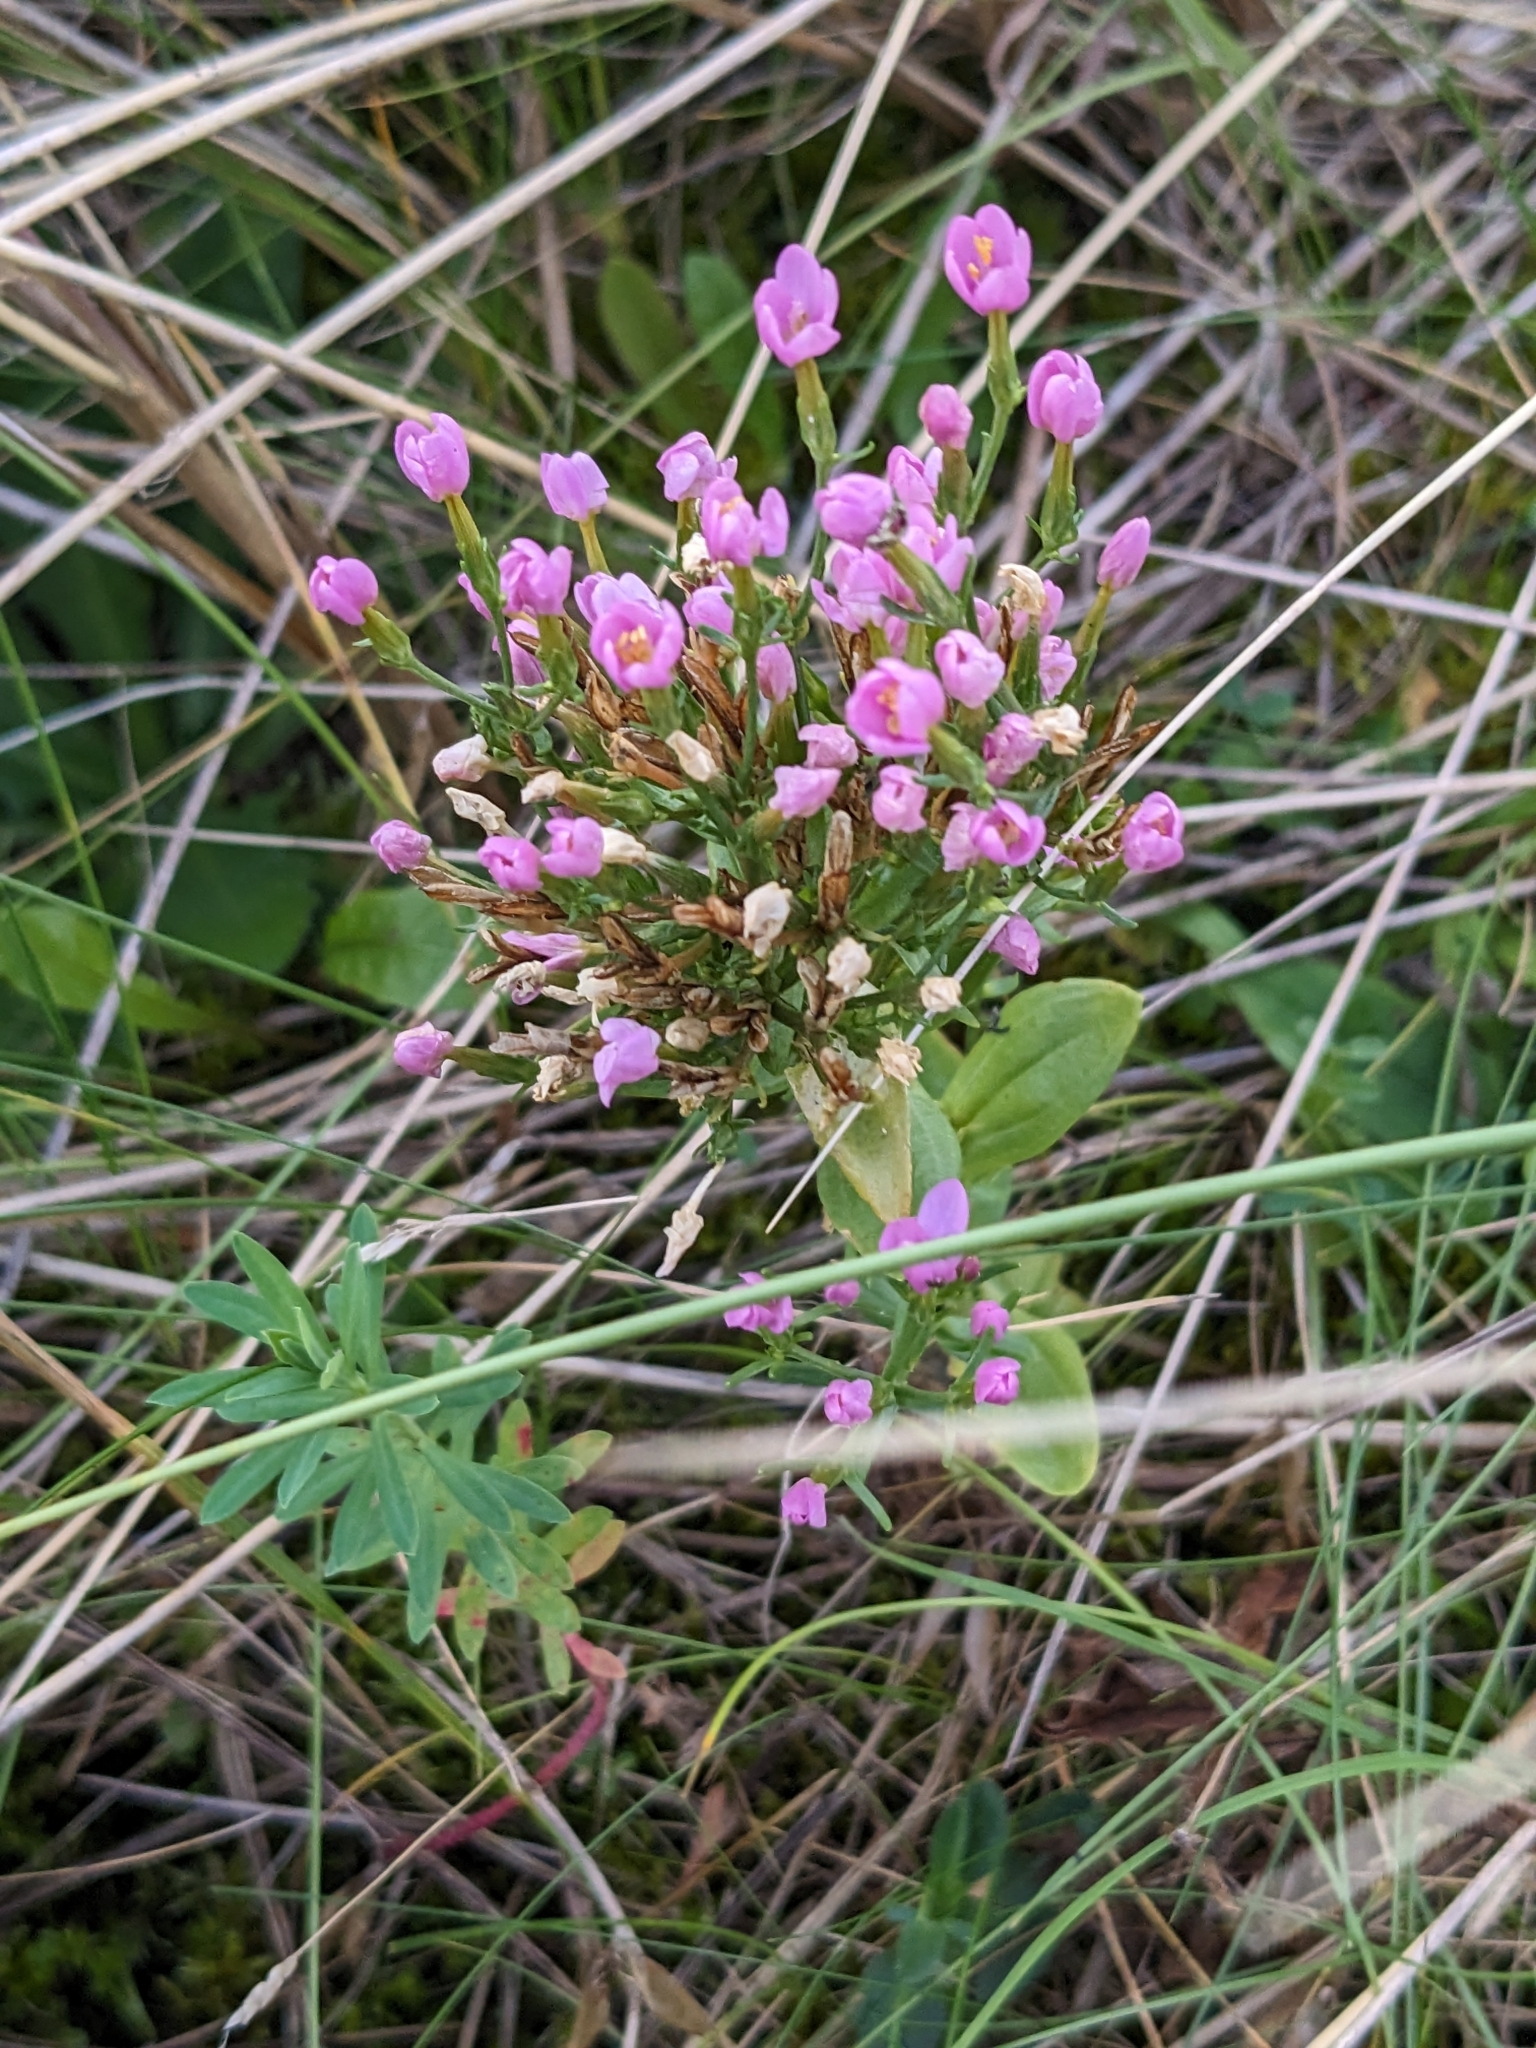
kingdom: Plantae
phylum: Tracheophyta
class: Magnoliopsida
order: Gentianales
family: Gentianaceae
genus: Centaurium
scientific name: Centaurium erythraea
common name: Common centaury
